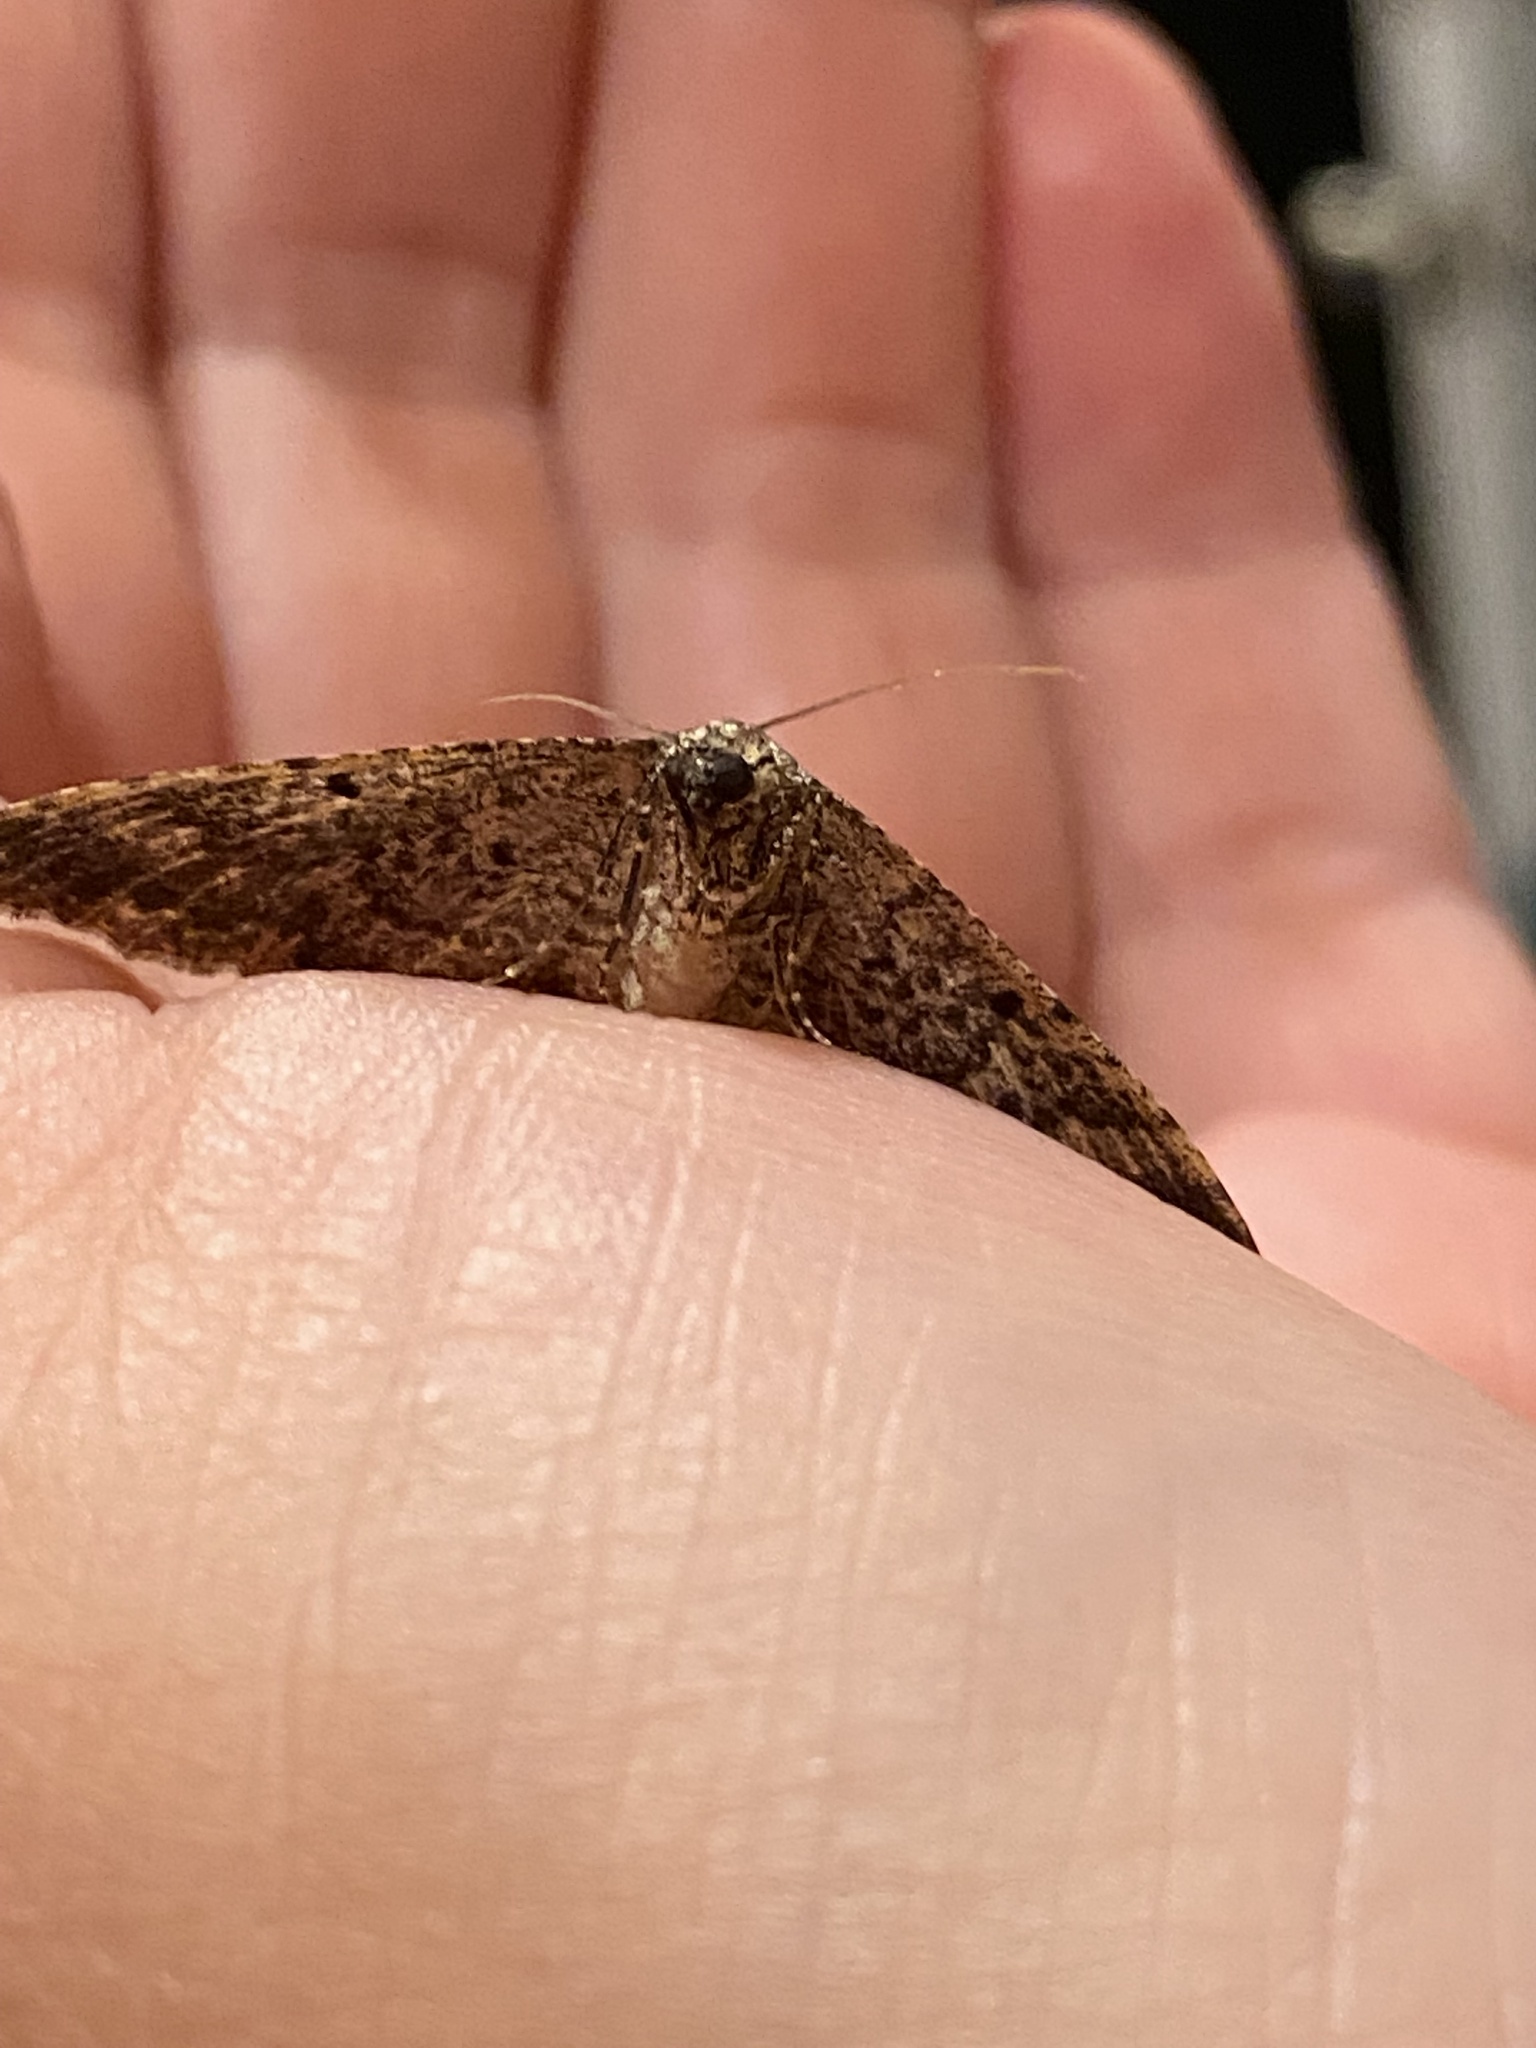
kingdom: Animalia
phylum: Arthropoda
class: Insecta
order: Lepidoptera
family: Geometridae
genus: Disclisioprocta
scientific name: Disclisioprocta stellata
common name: Somber carpet
